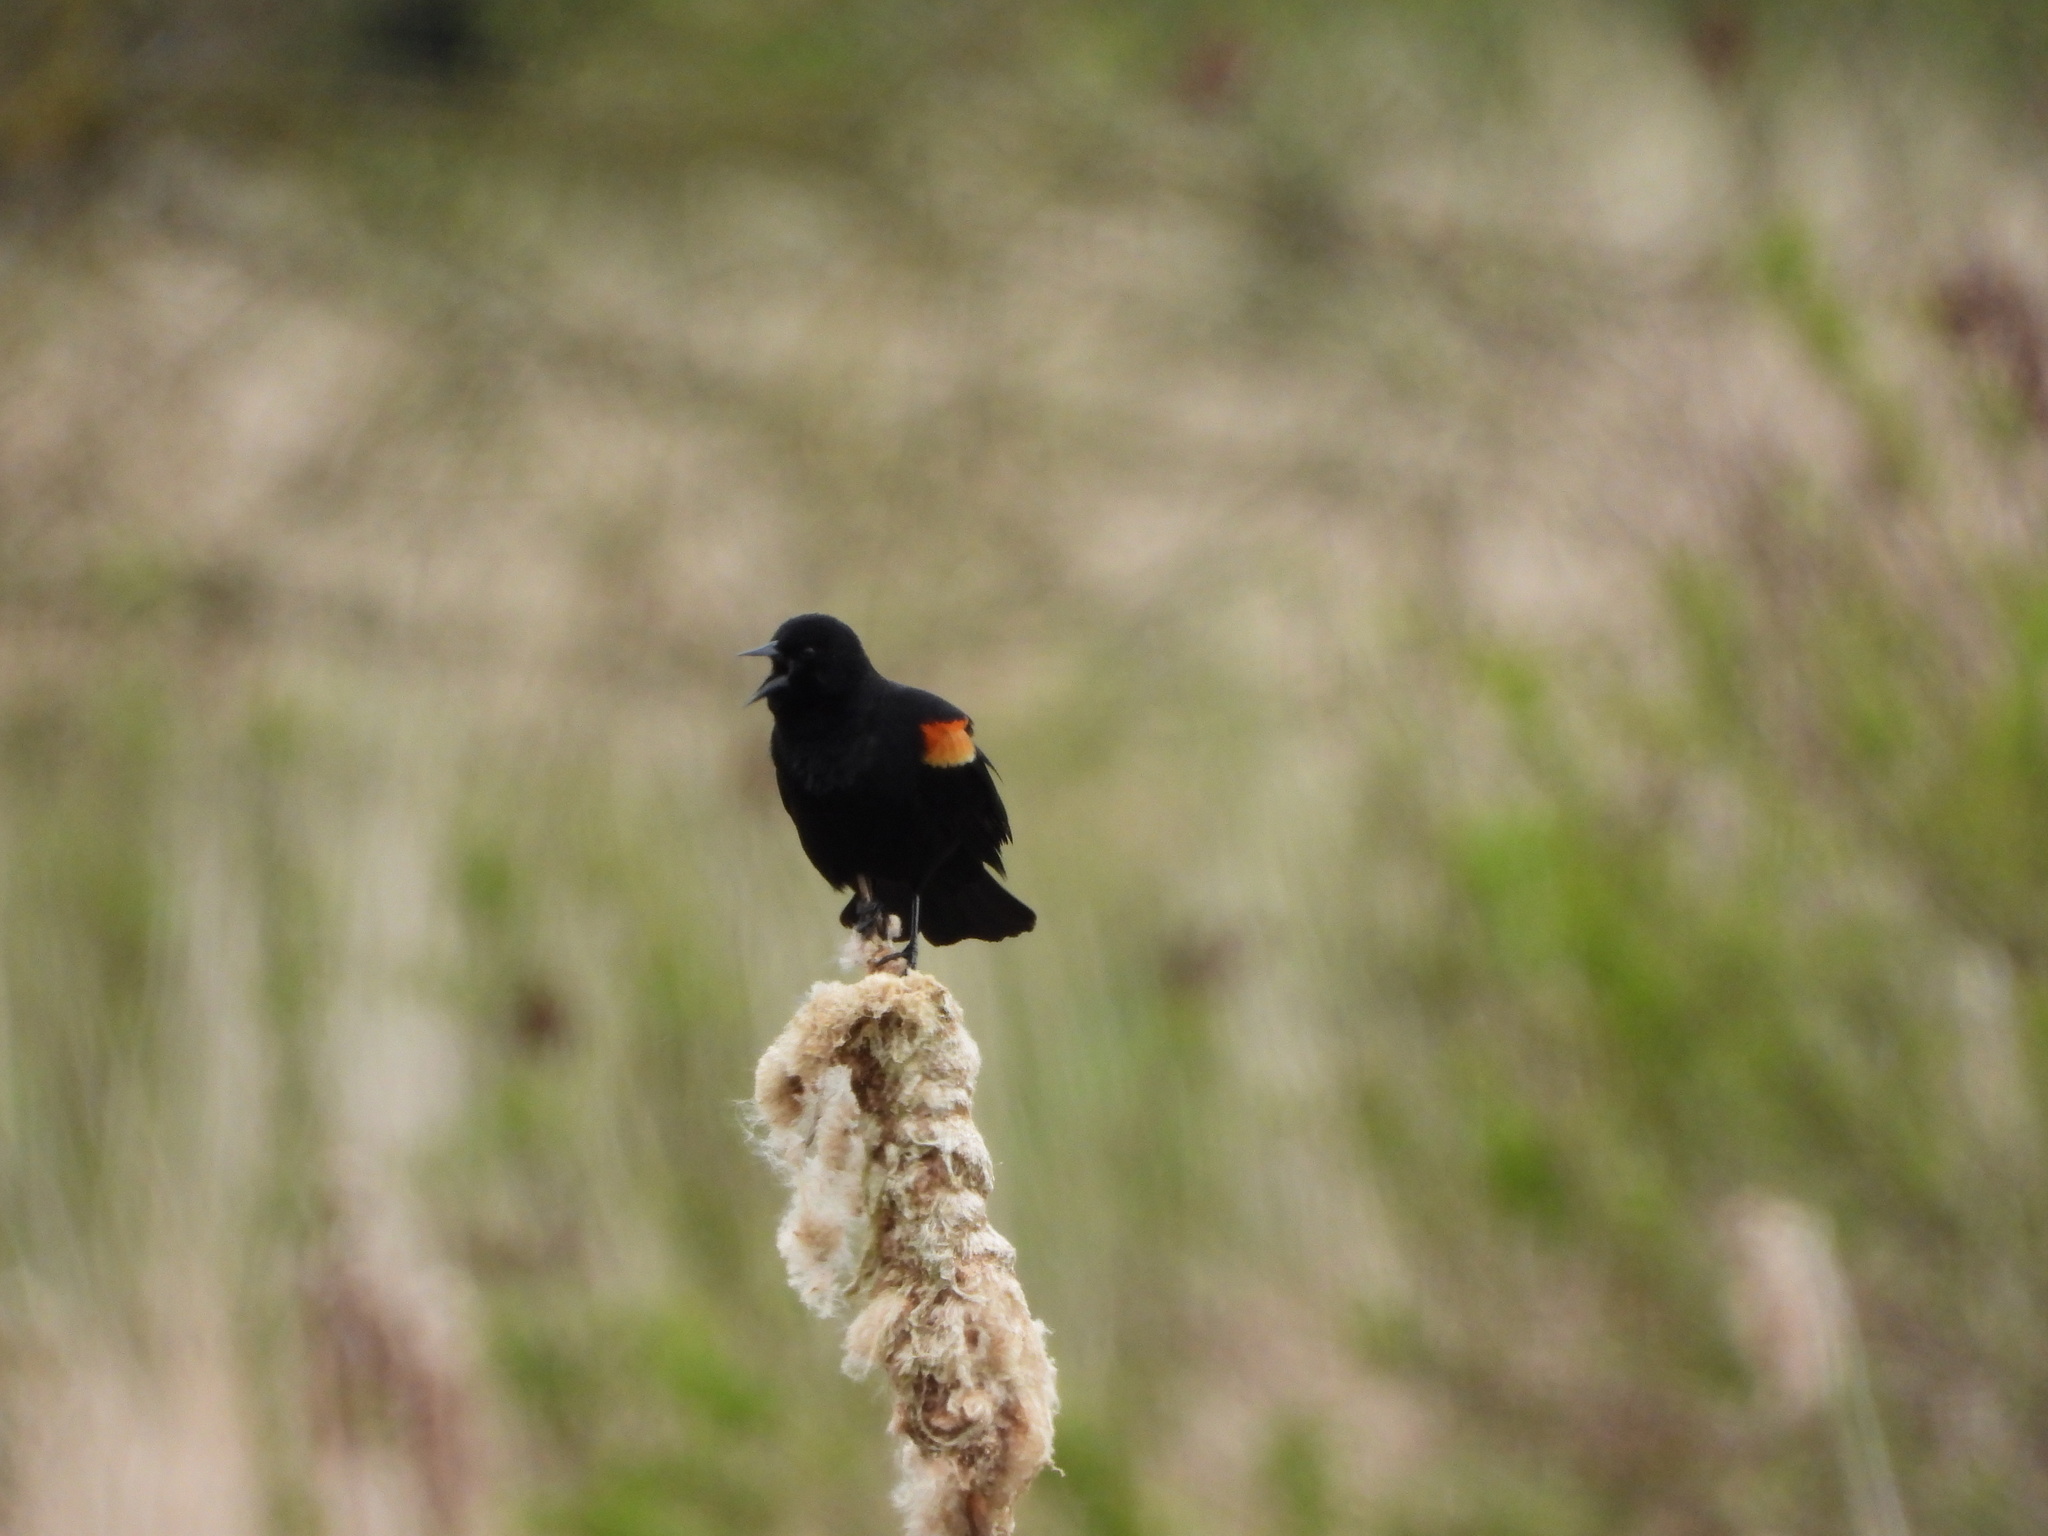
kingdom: Animalia
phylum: Chordata
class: Aves
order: Passeriformes
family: Icteridae
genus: Agelaius
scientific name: Agelaius phoeniceus
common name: Red-winged blackbird
